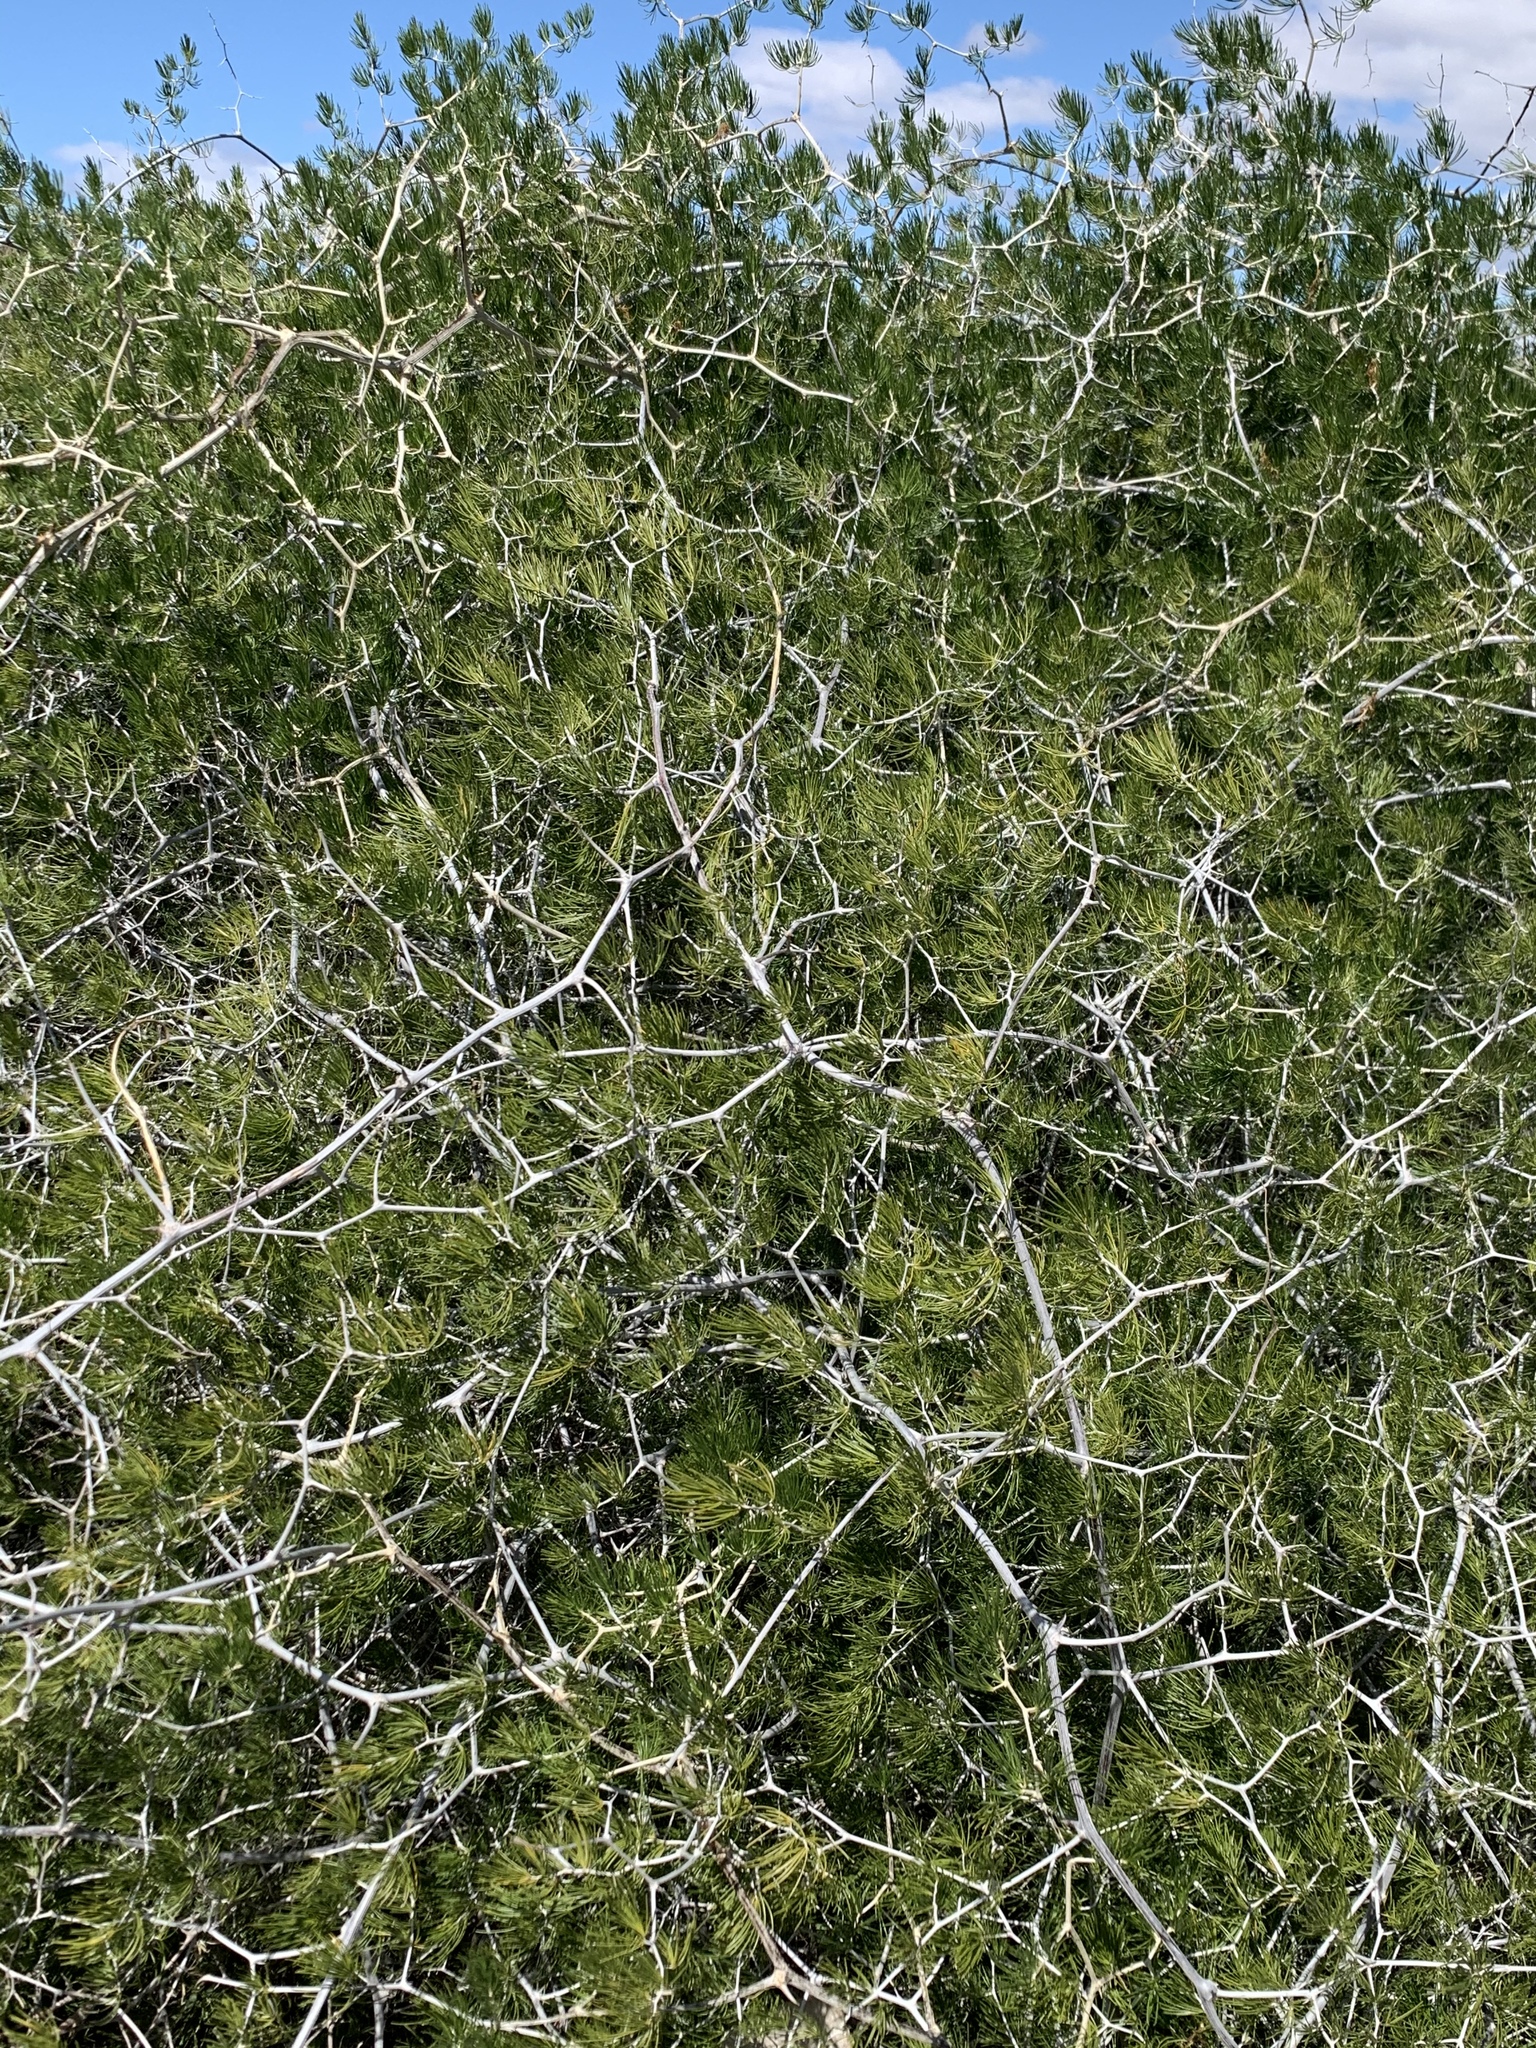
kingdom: Plantae
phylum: Tracheophyta
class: Liliopsida
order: Asparagales
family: Asparagaceae
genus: Asparagus
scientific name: Asparagus retrofractus
